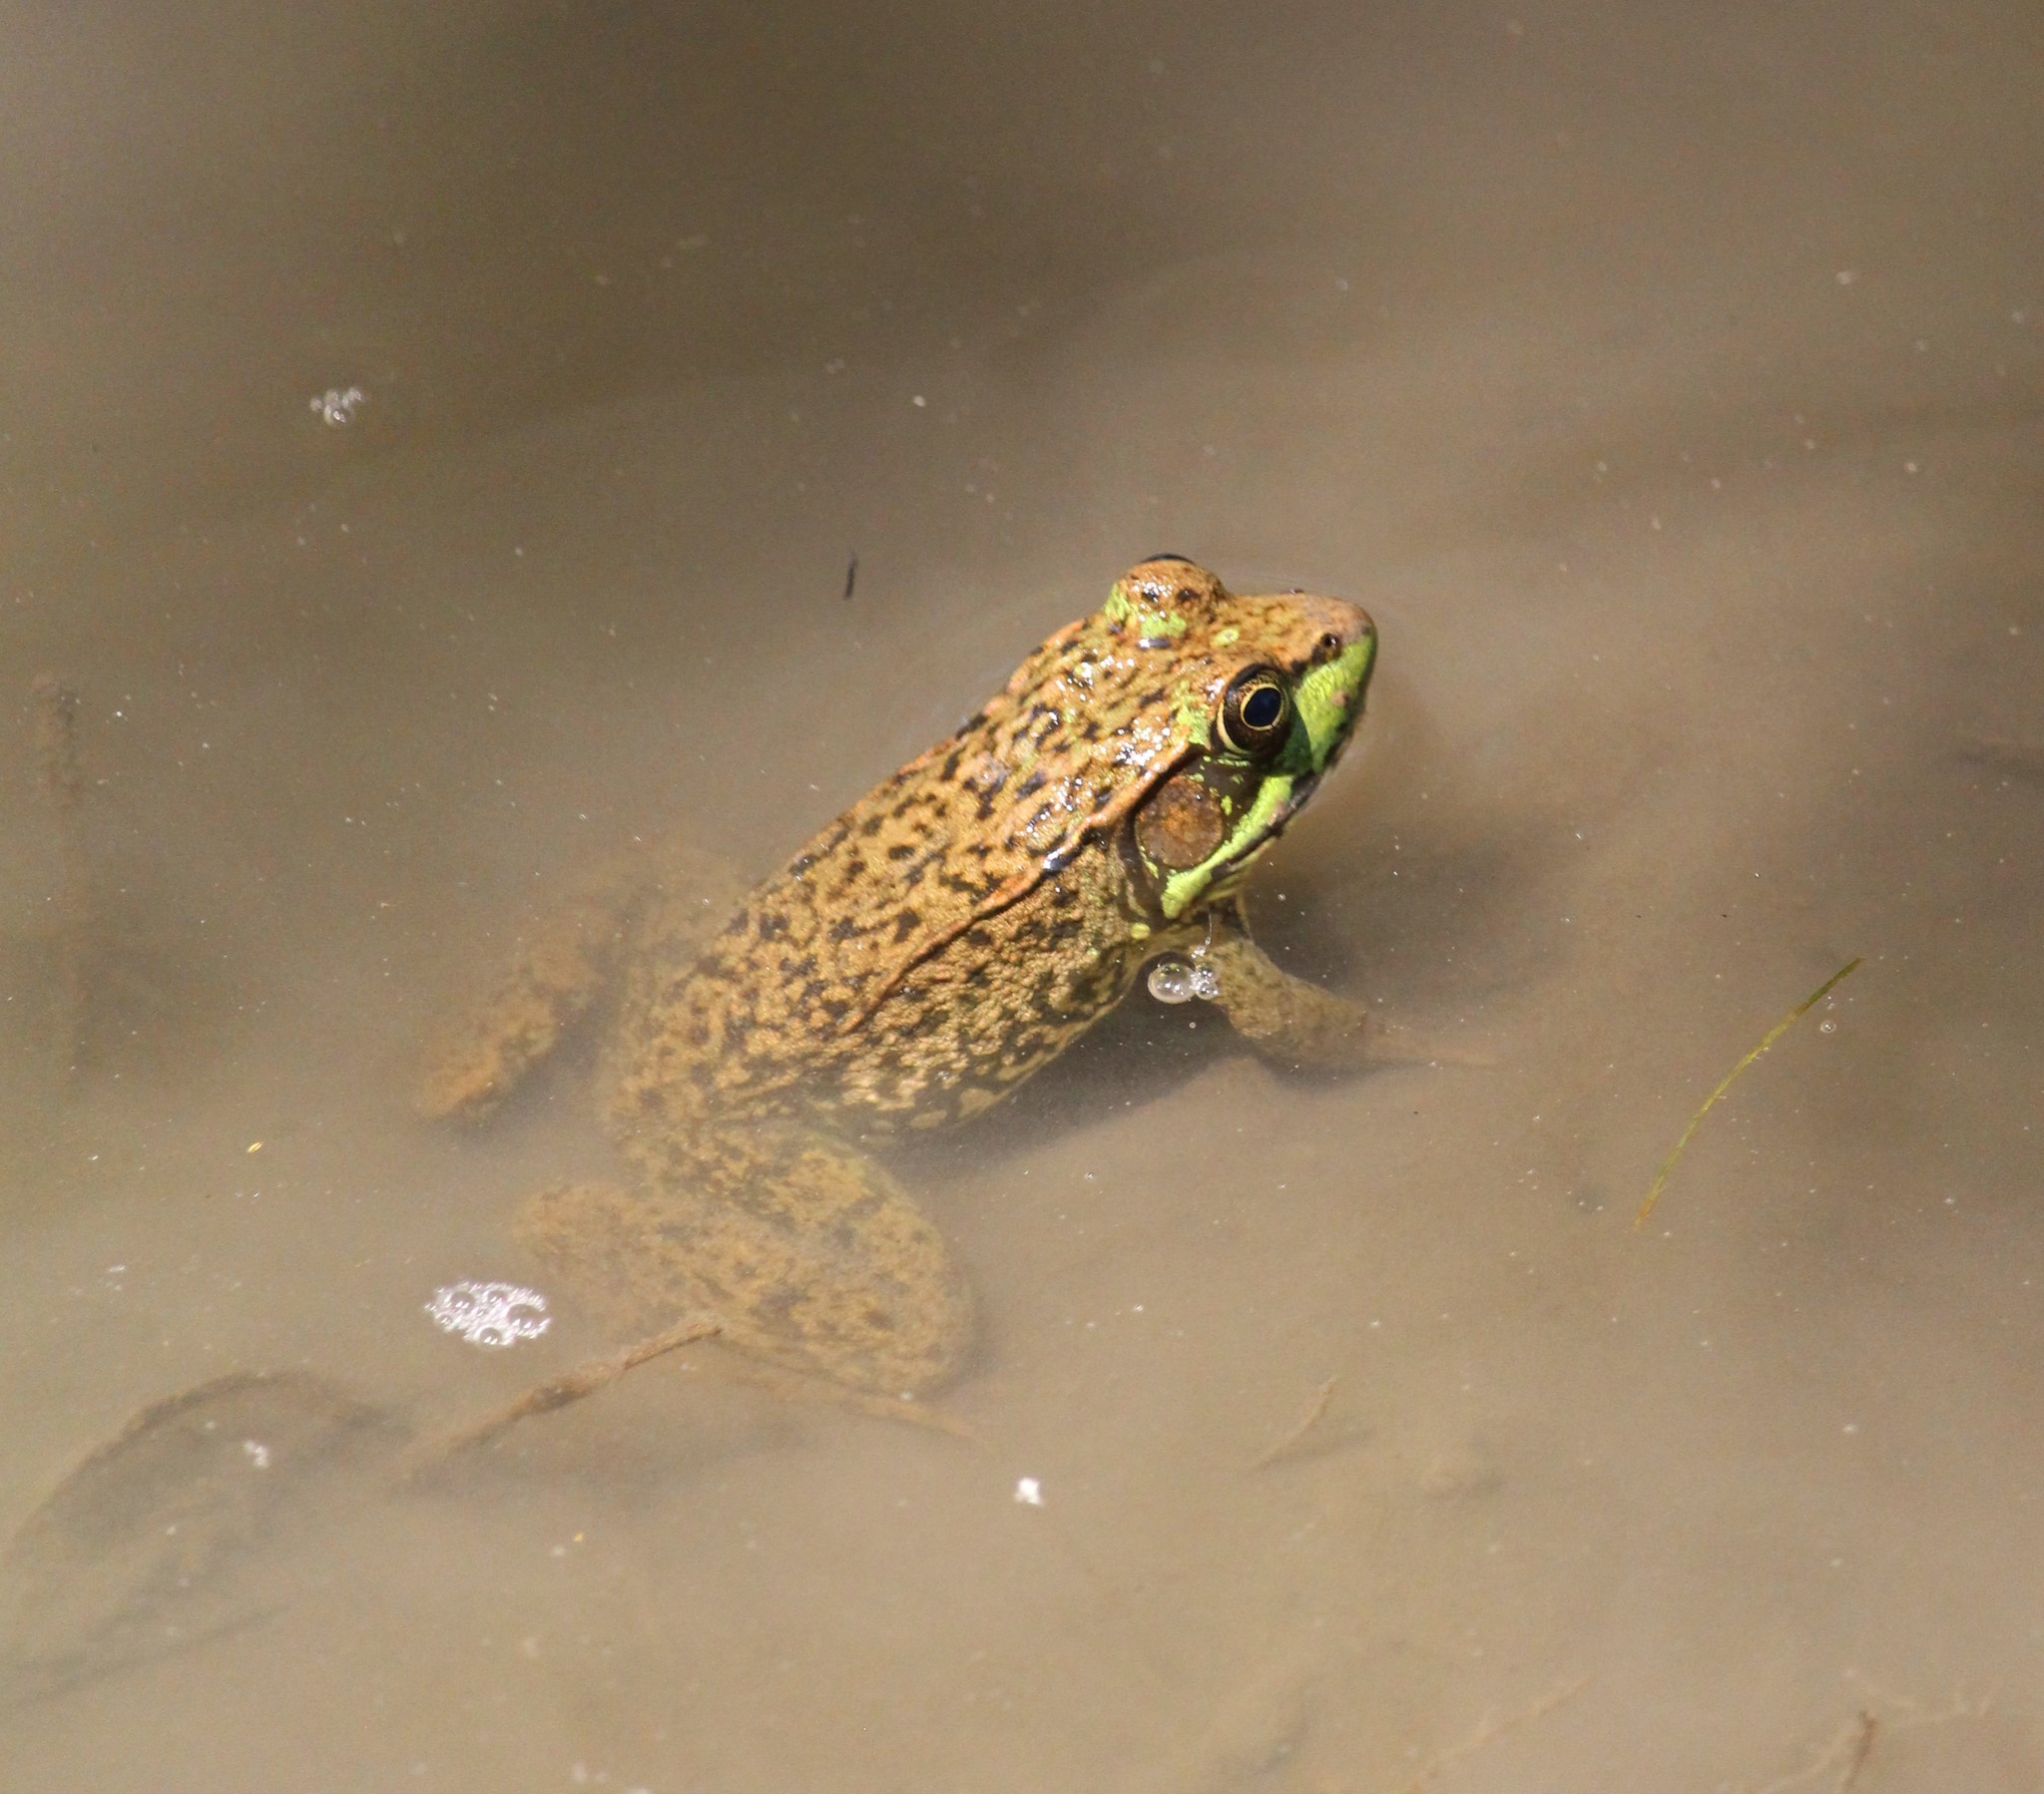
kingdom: Animalia
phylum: Chordata
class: Amphibia
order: Anura
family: Ranidae
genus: Lithobates
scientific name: Lithobates clamitans
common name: Green frog
